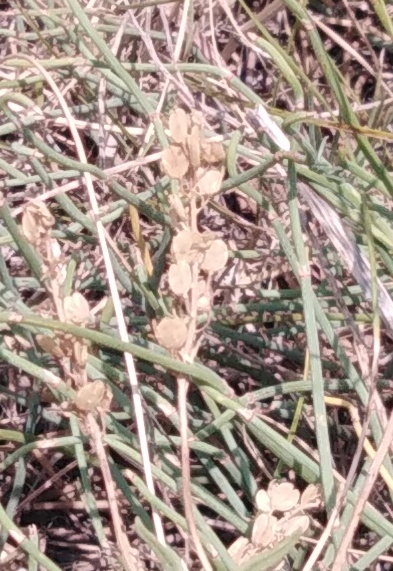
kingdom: Plantae
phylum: Tracheophyta
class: Magnoliopsida
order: Brassicales
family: Brassicaceae
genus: Thlaspi
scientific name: Thlaspi arvense
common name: Field pennycress
